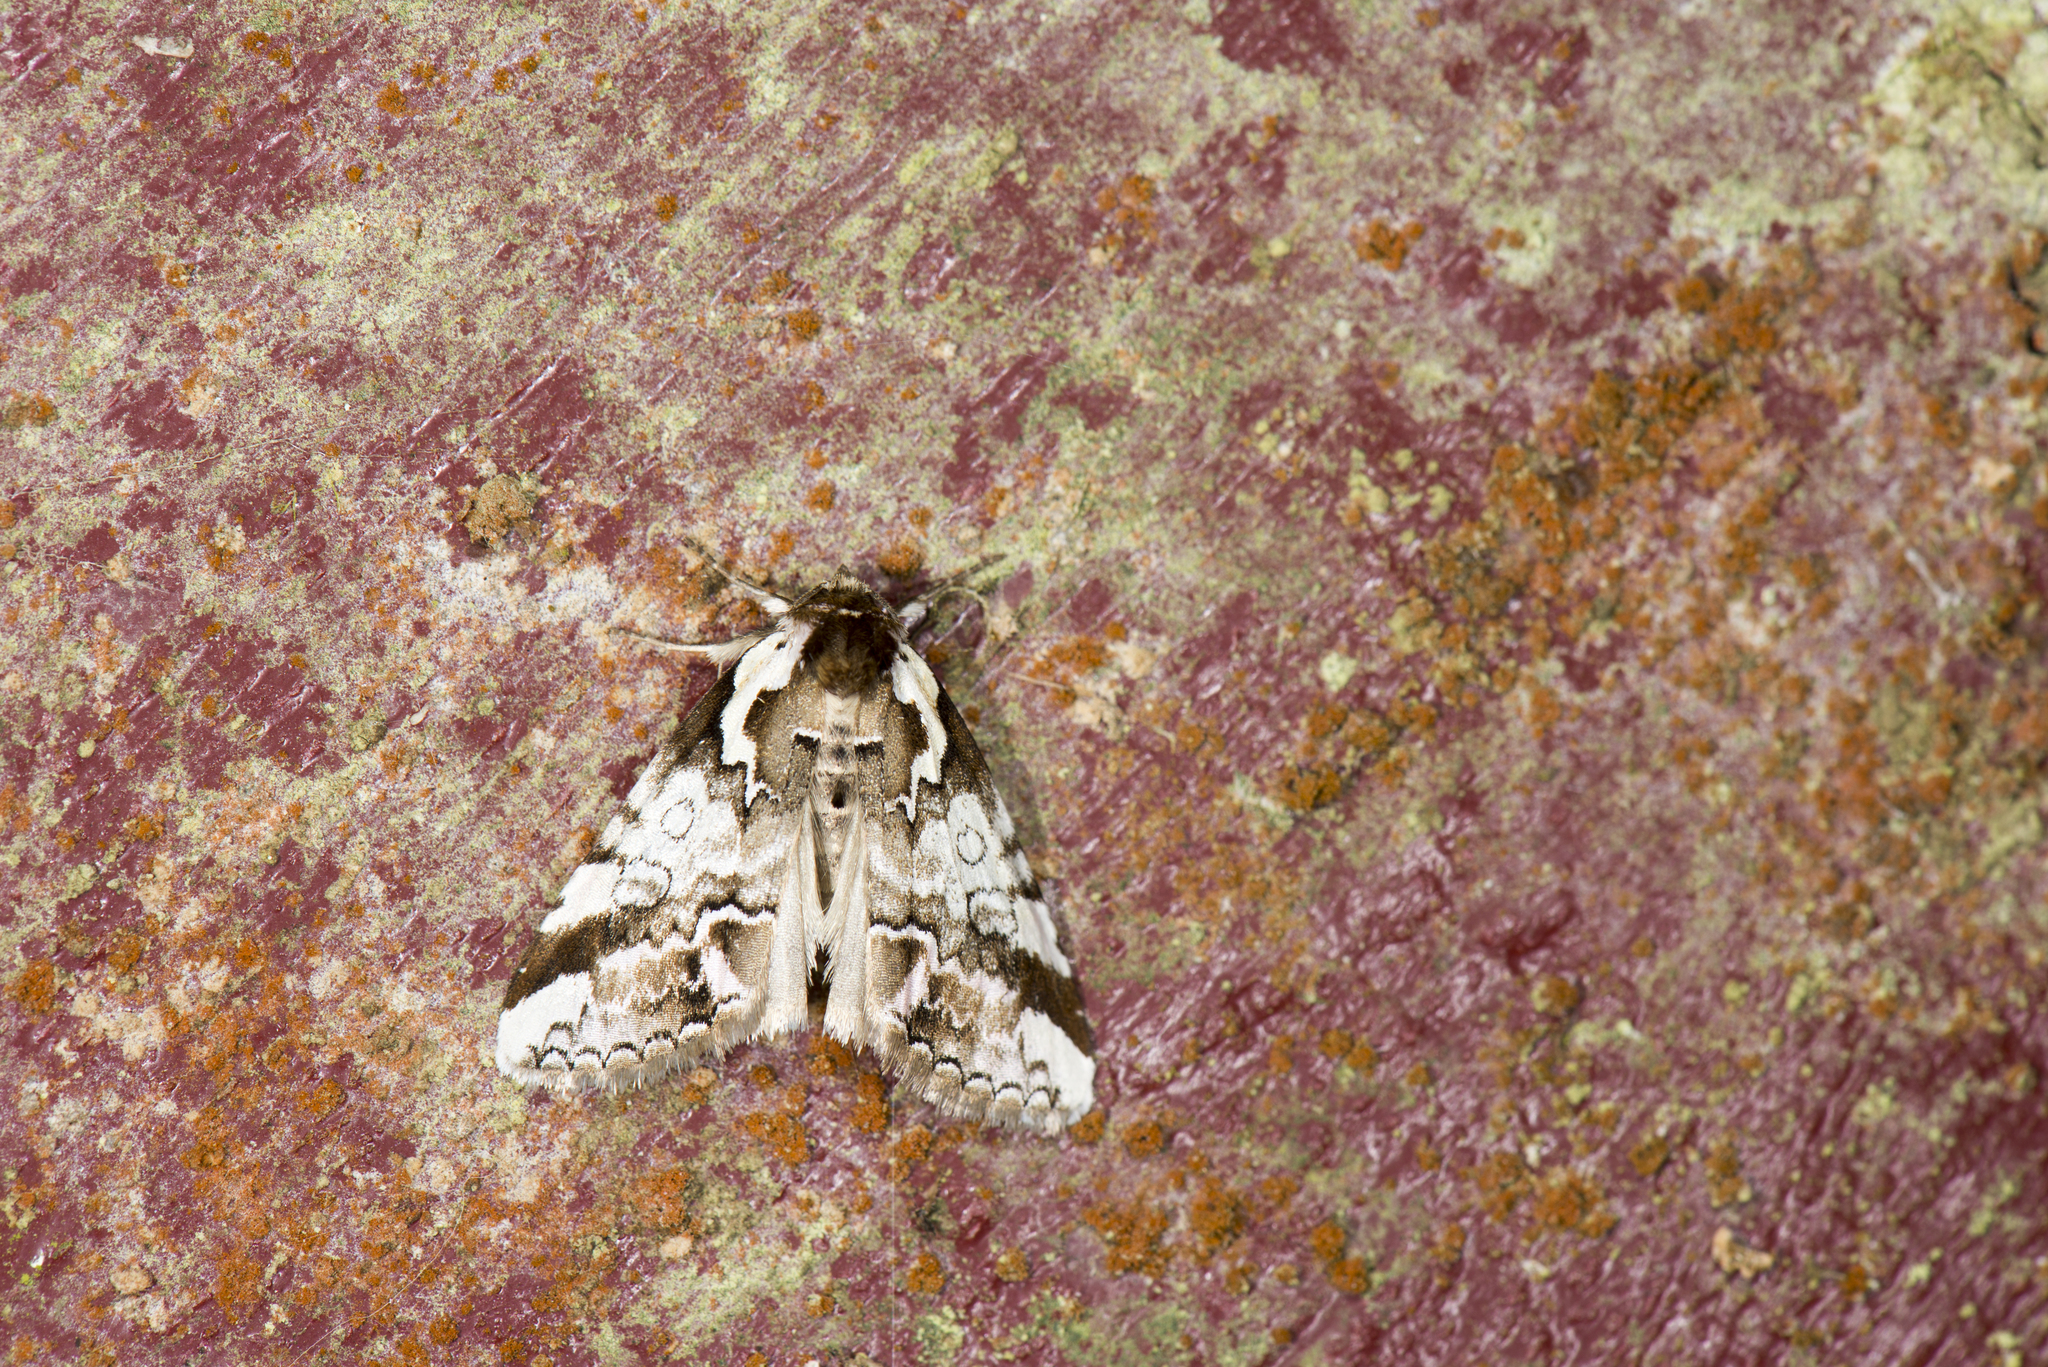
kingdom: Animalia
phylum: Arthropoda
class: Insecta
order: Lepidoptera
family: Drepanidae
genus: Psidopala
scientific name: Psidopala pennata
